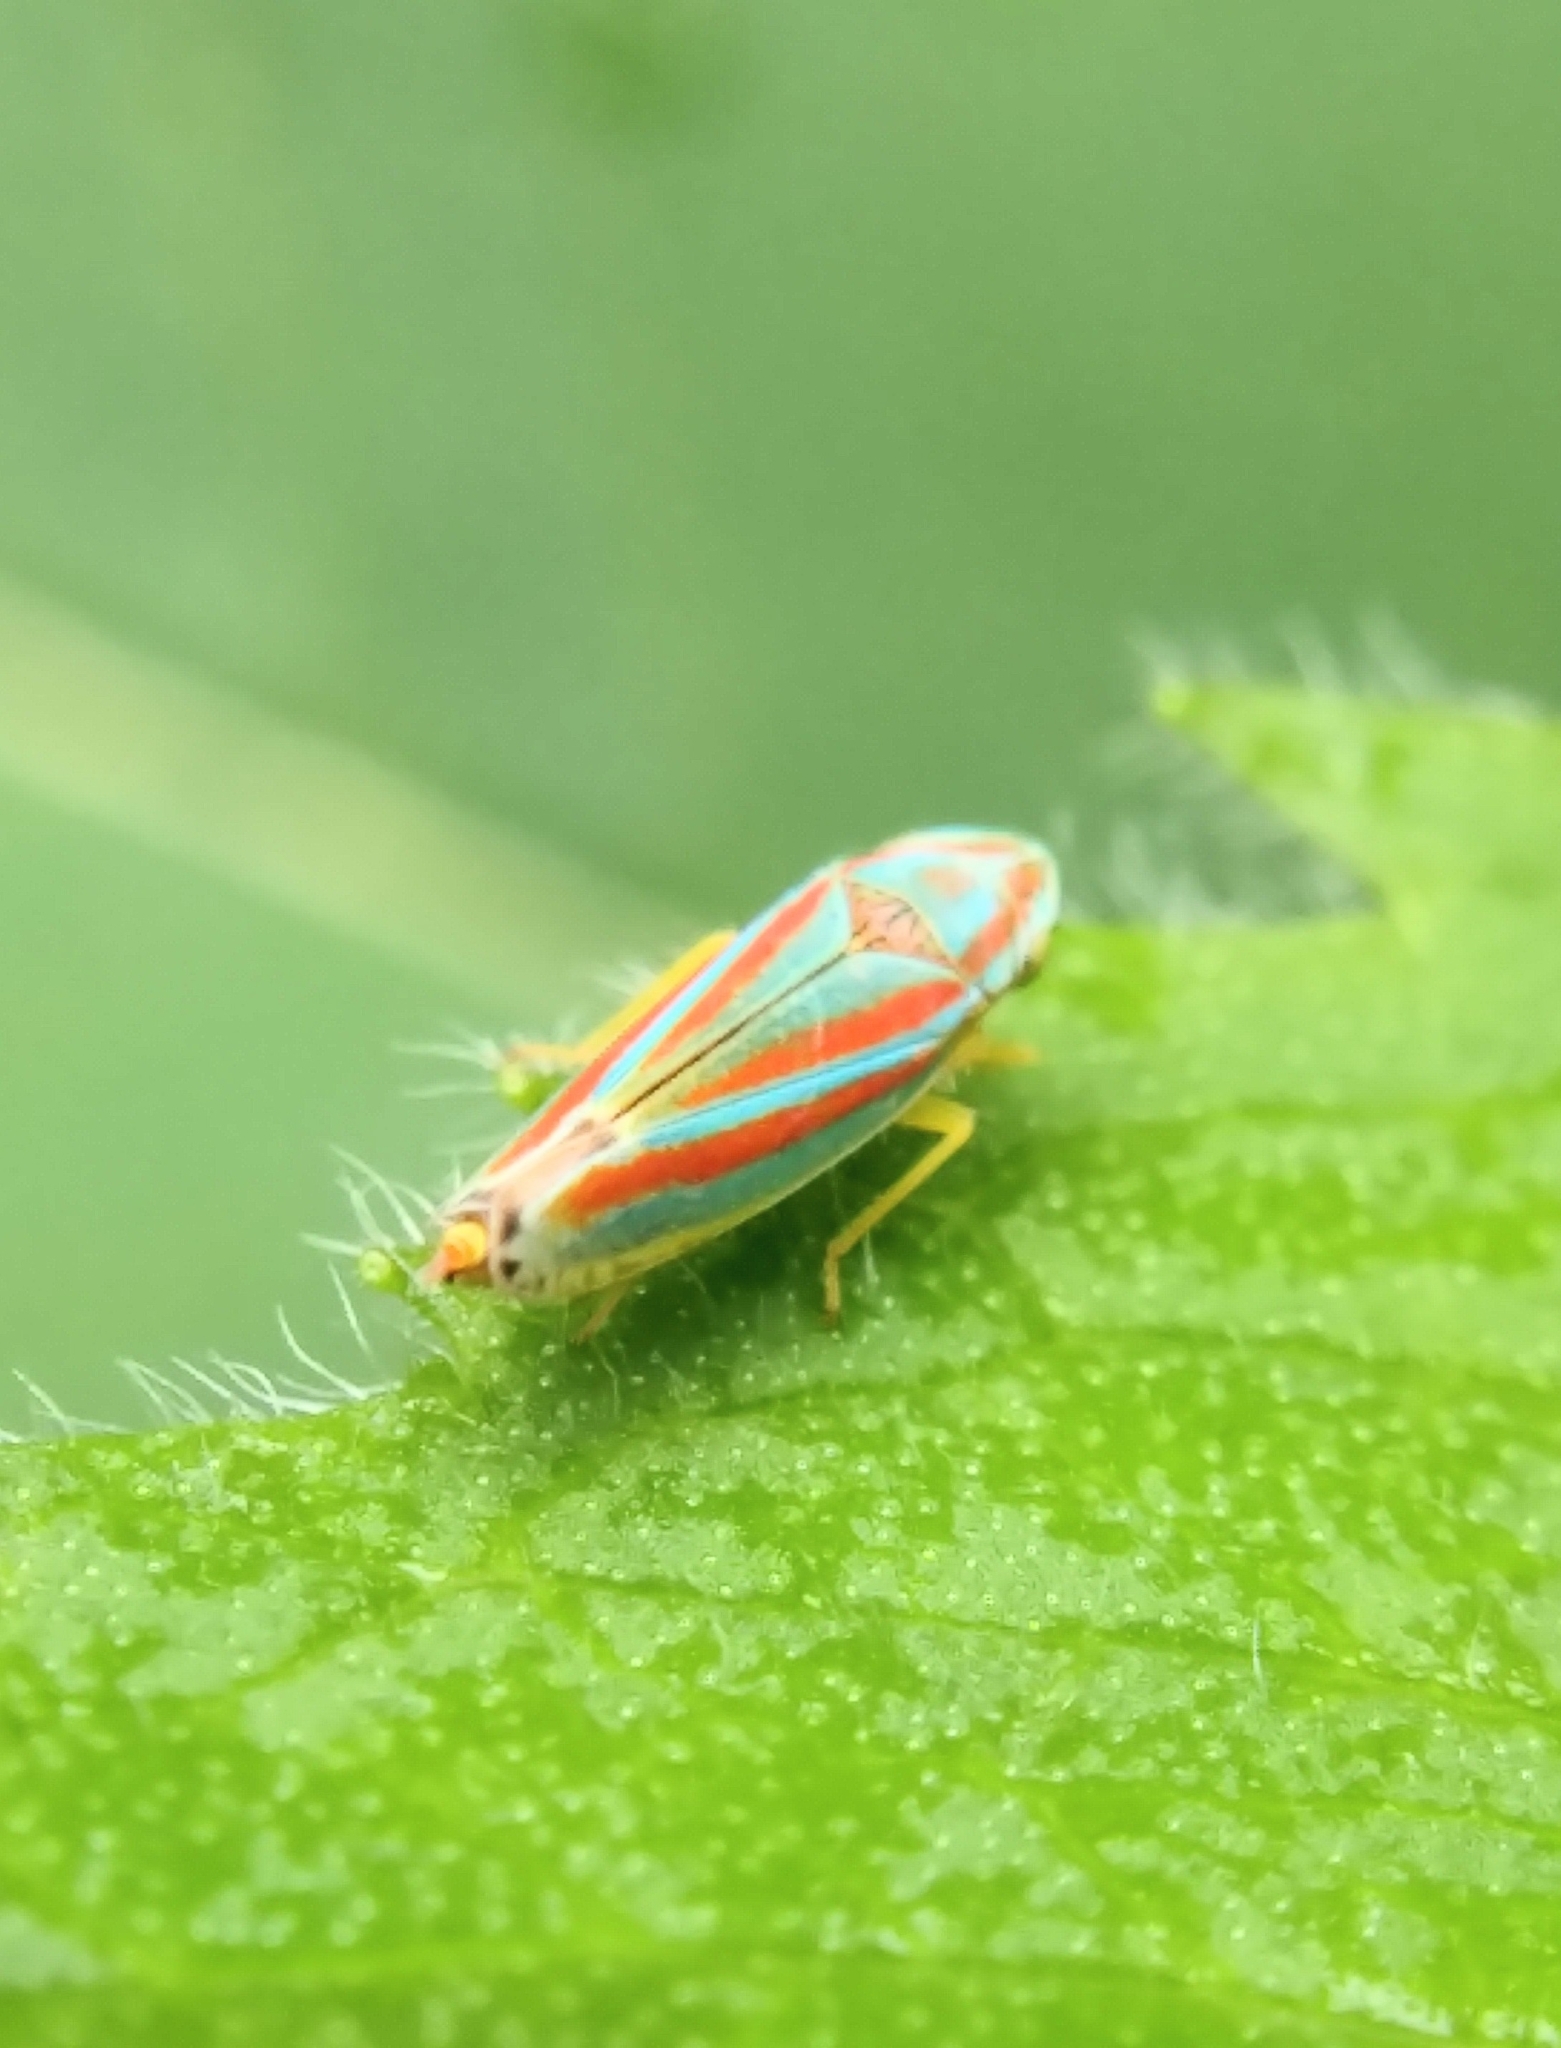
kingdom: Animalia
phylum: Arthropoda
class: Insecta
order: Hemiptera
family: Cicadellidae
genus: Graphocephala
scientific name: Graphocephala coccinea
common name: Candy-striped leafhopper
